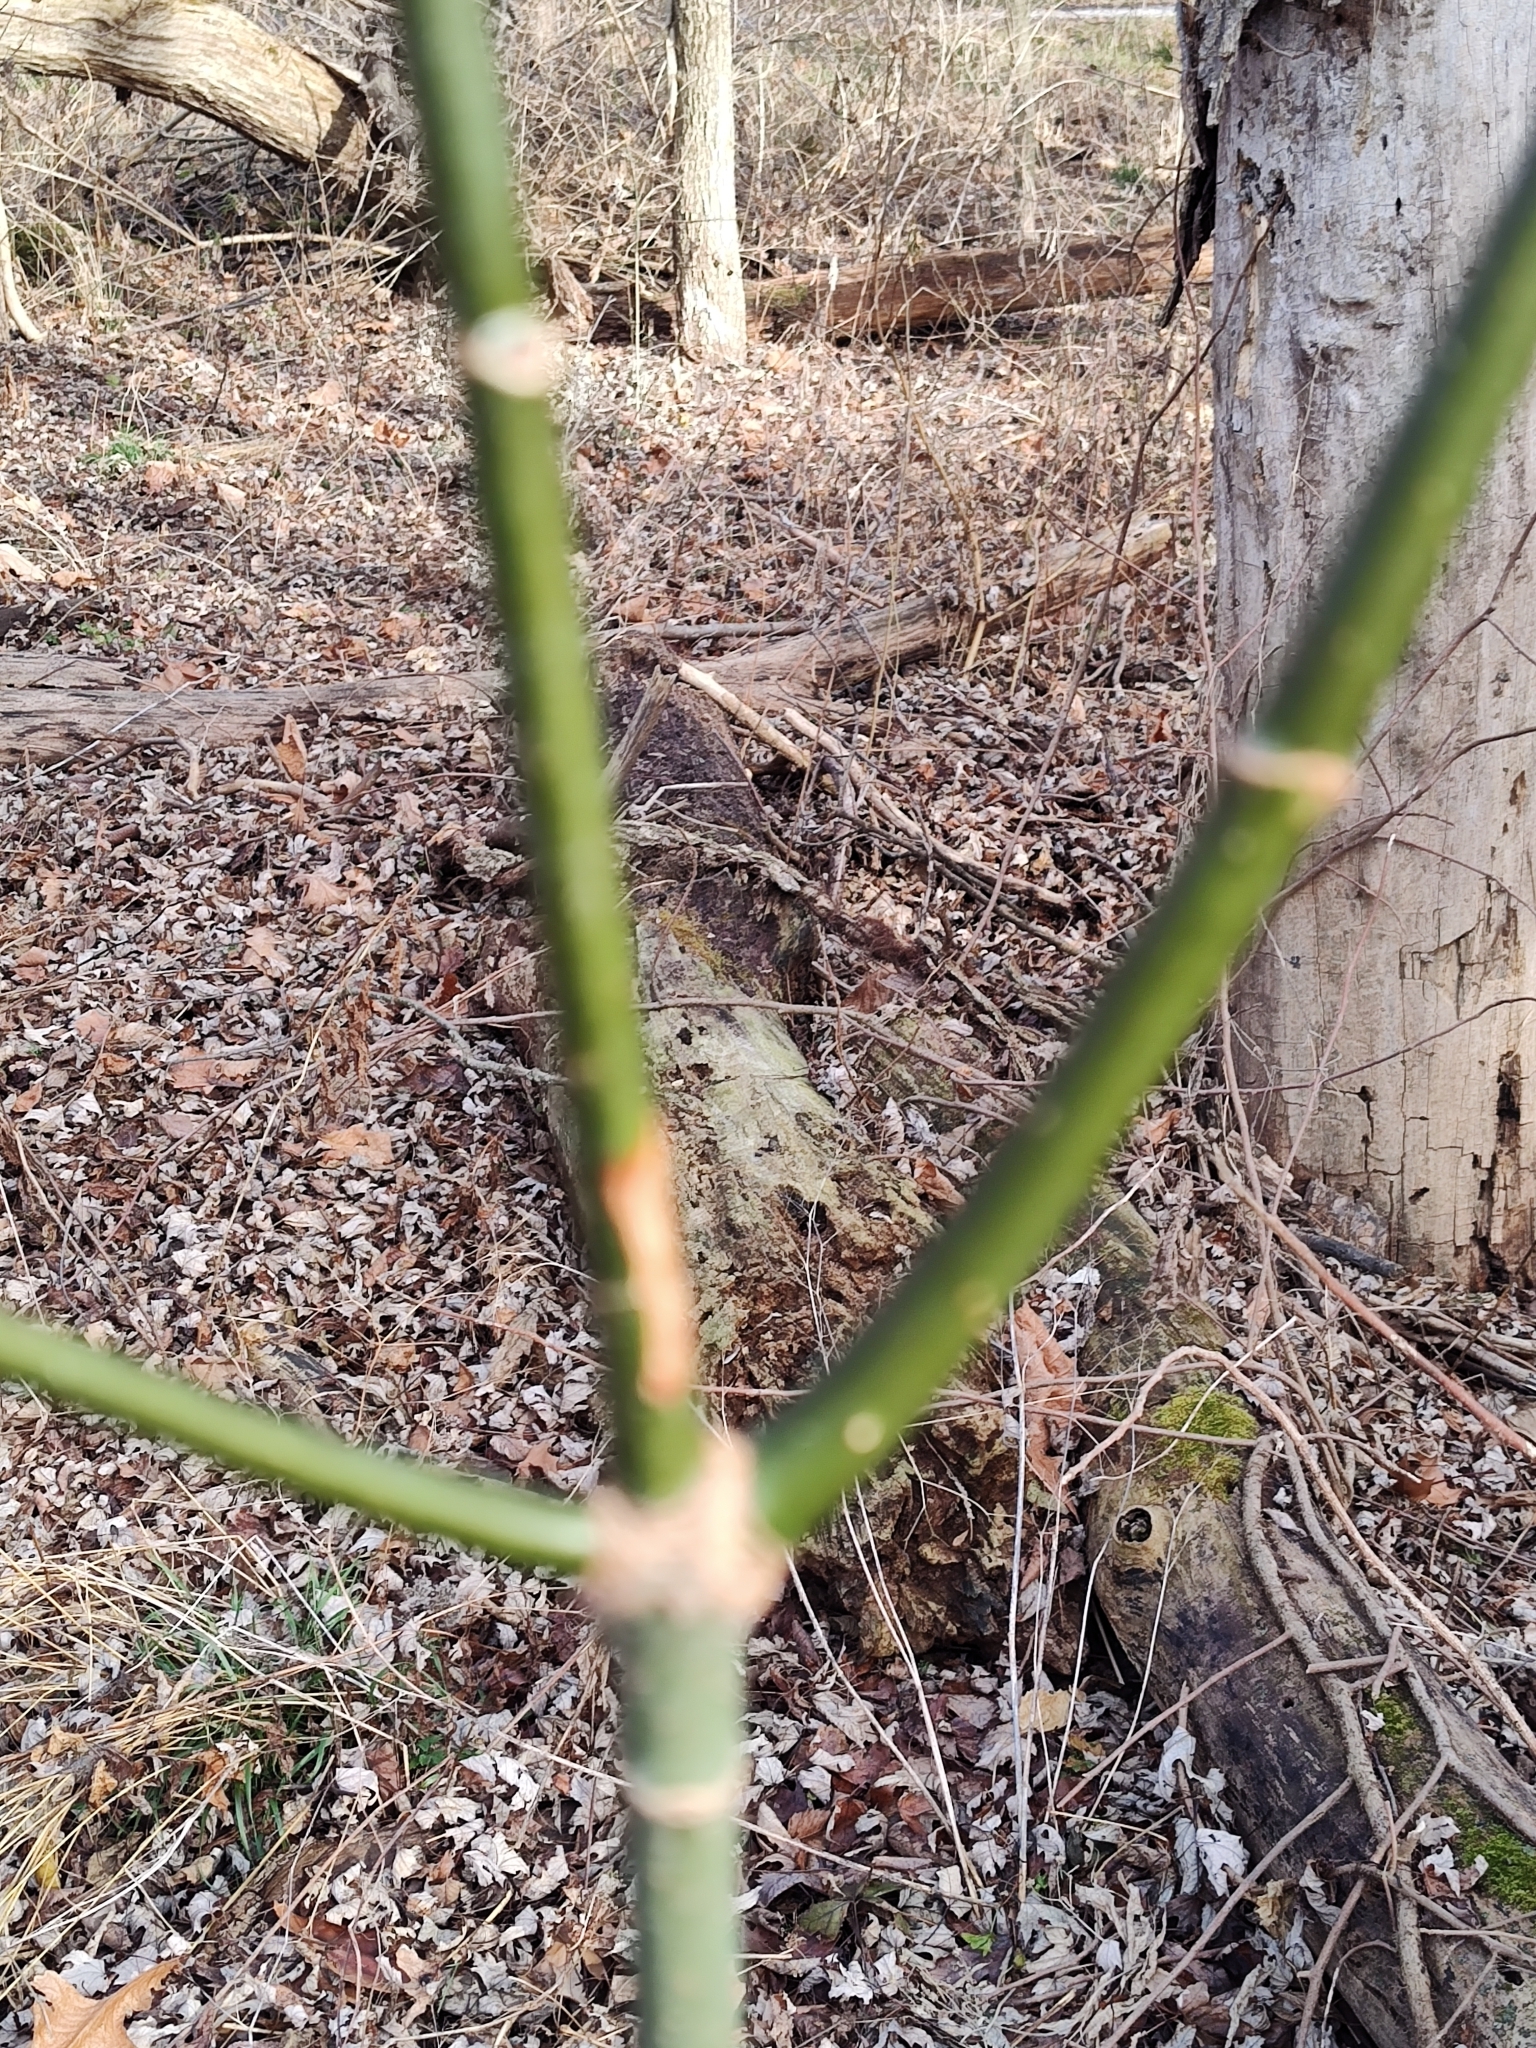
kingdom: Plantae
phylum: Tracheophyta
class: Magnoliopsida
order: Sapindales
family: Sapindaceae
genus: Acer
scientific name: Acer negundo
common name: Ashleaf maple
